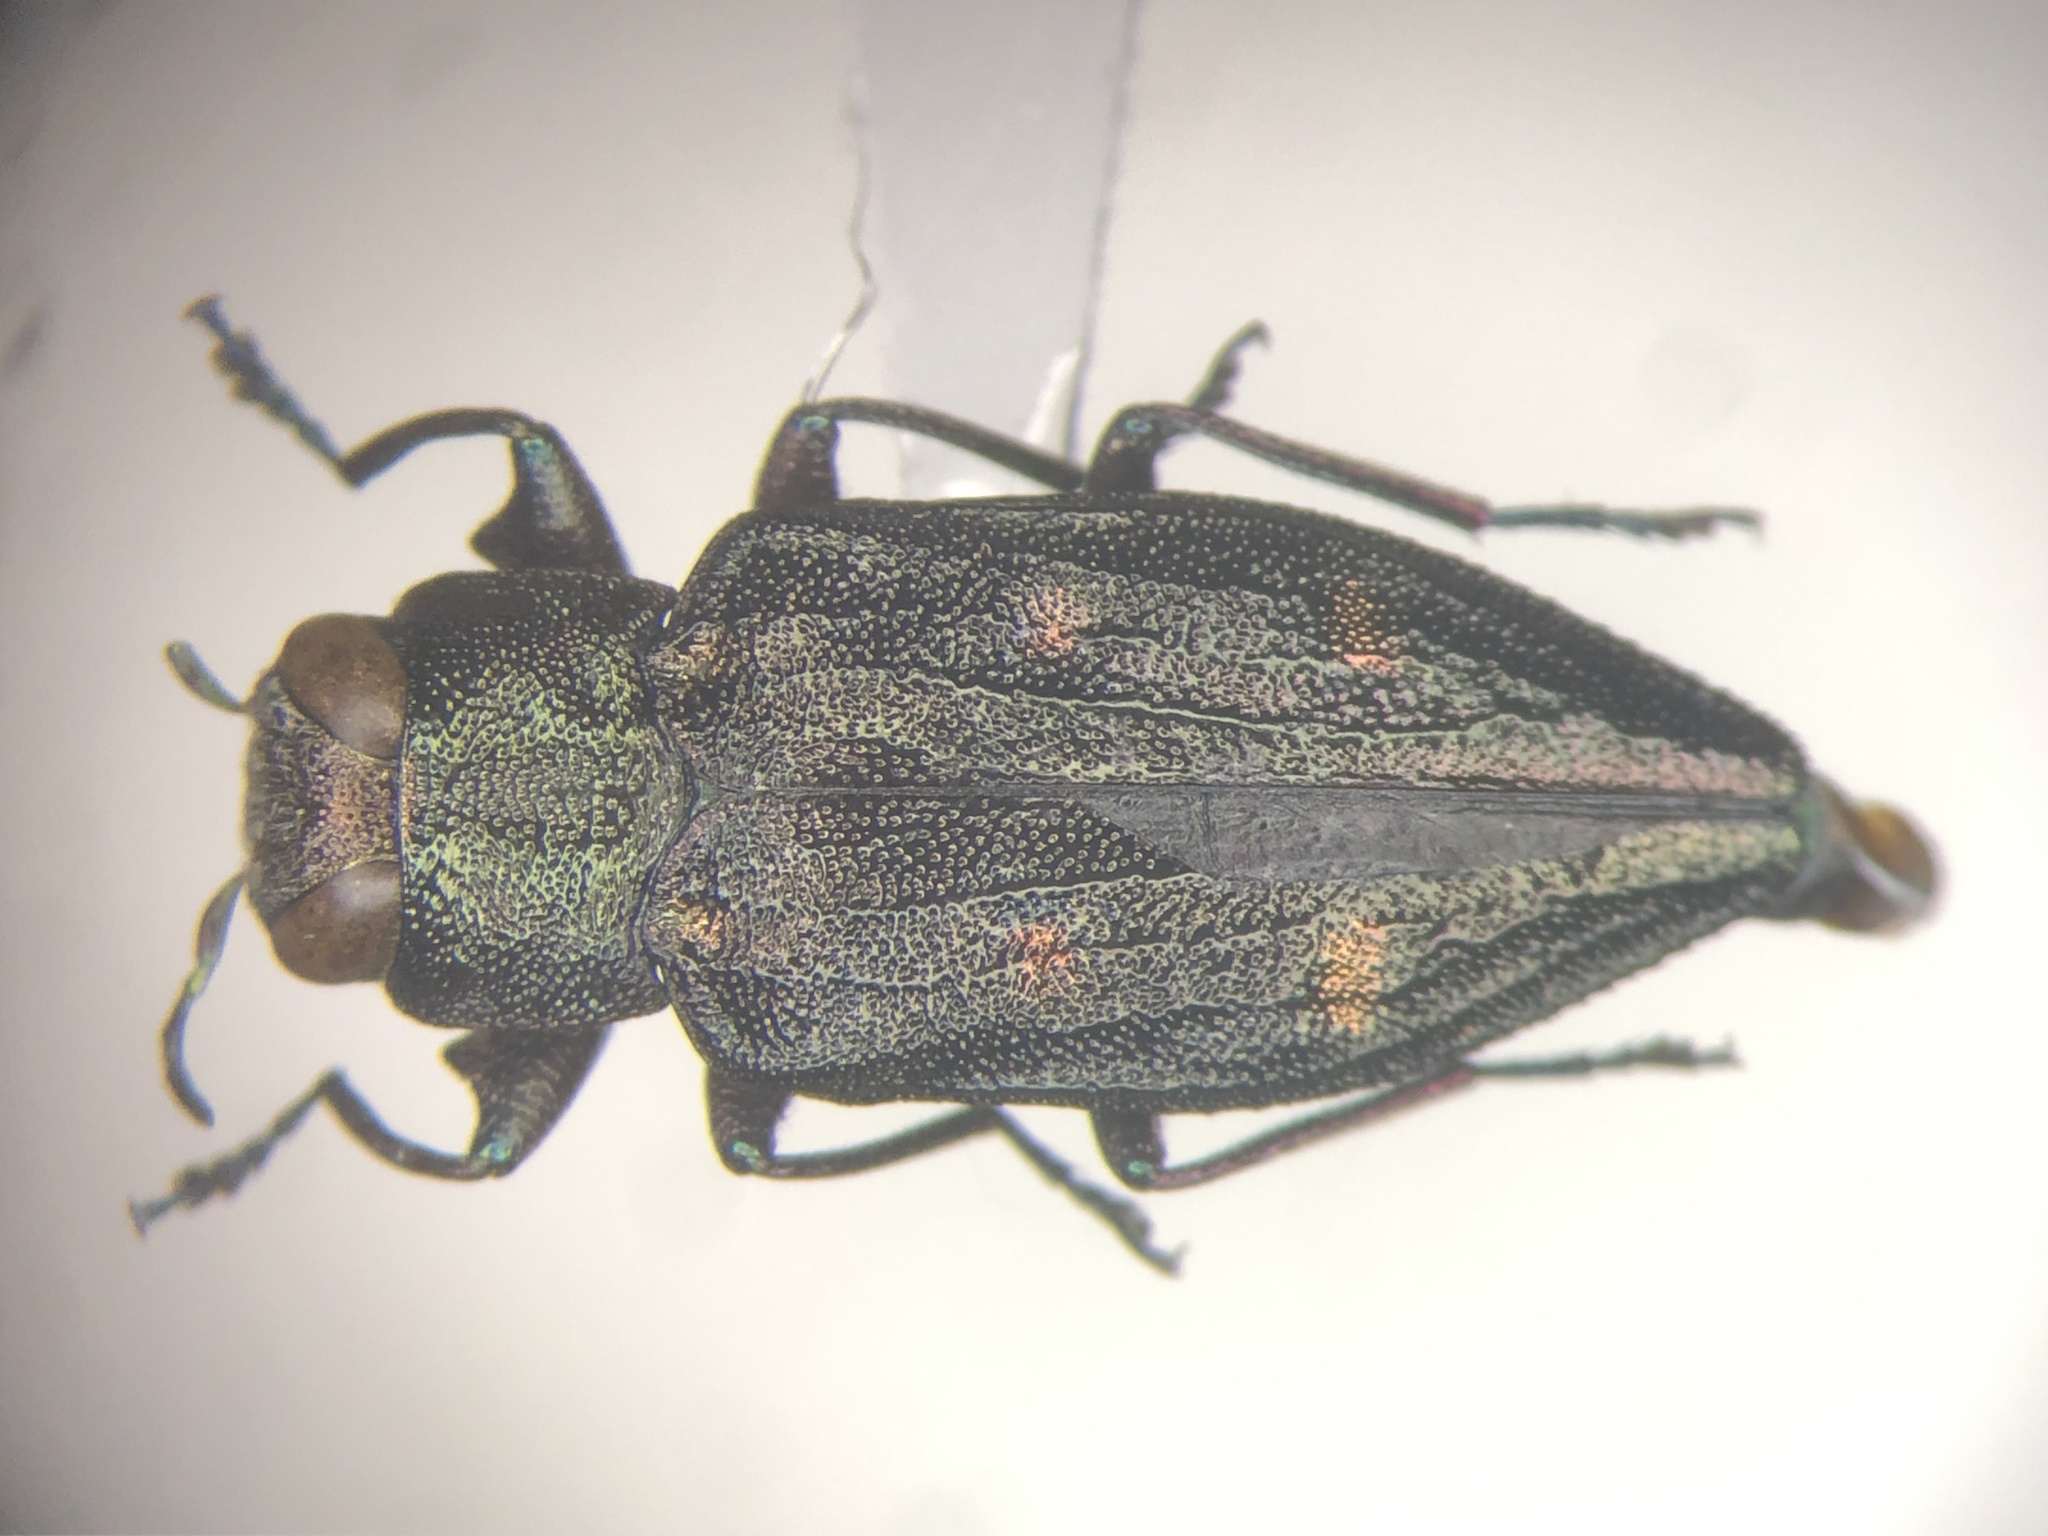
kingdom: Animalia
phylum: Arthropoda
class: Insecta
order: Coleoptera
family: Buprestidae
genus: Chrysobothris
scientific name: Chrysobothris sexsignata
